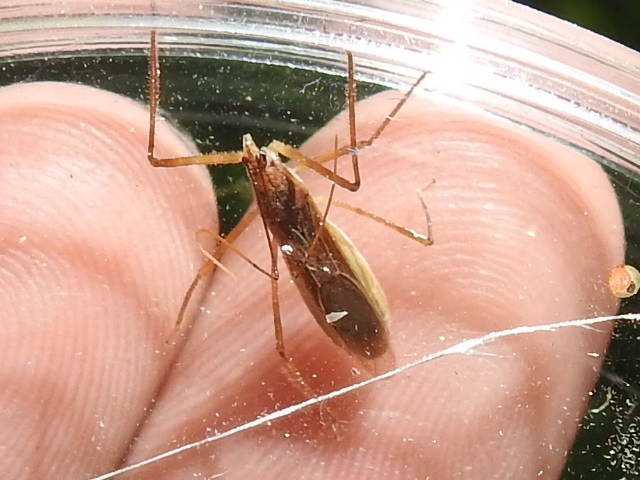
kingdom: Animalia
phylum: Arthropoda
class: Insecta
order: Hemiptera
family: Reduviidae
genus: Zelus
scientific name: Zelus cervicalis
